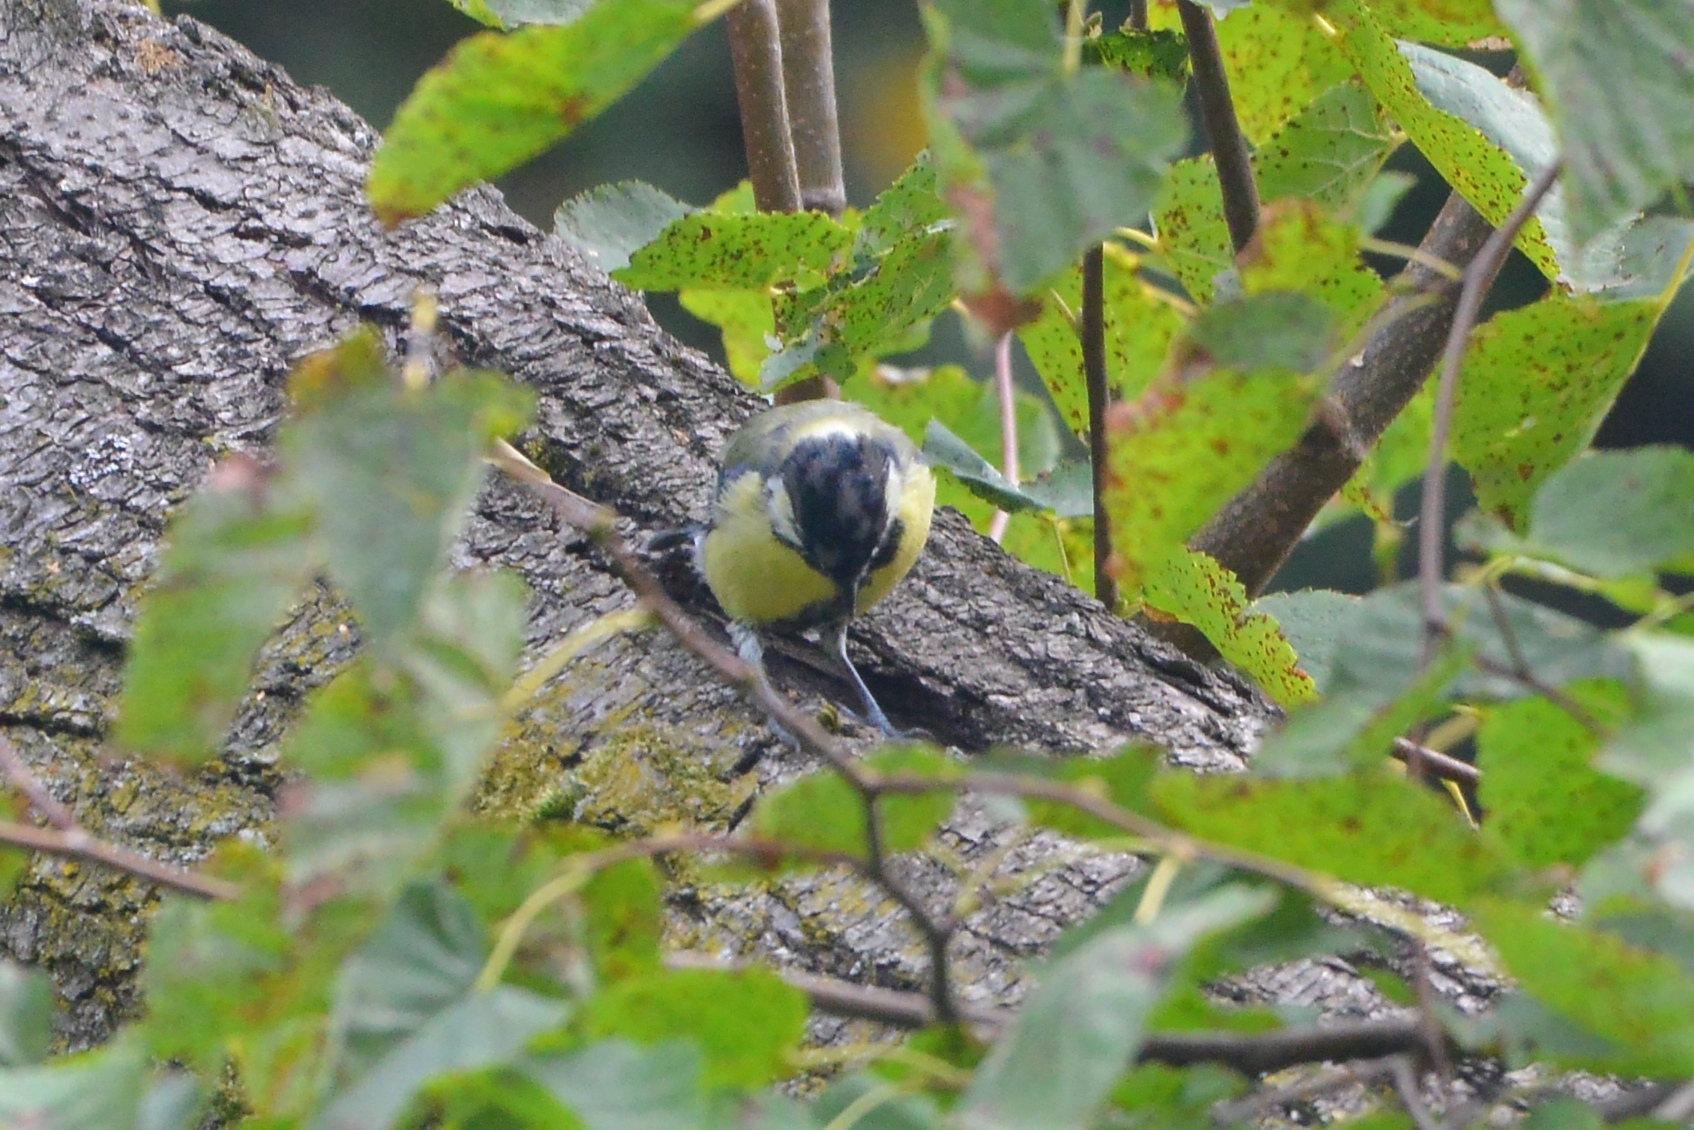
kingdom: Animalia
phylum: Chordata
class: Aves
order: Passeriformes
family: Paridae
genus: Parus
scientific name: Parus major
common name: Great tit
